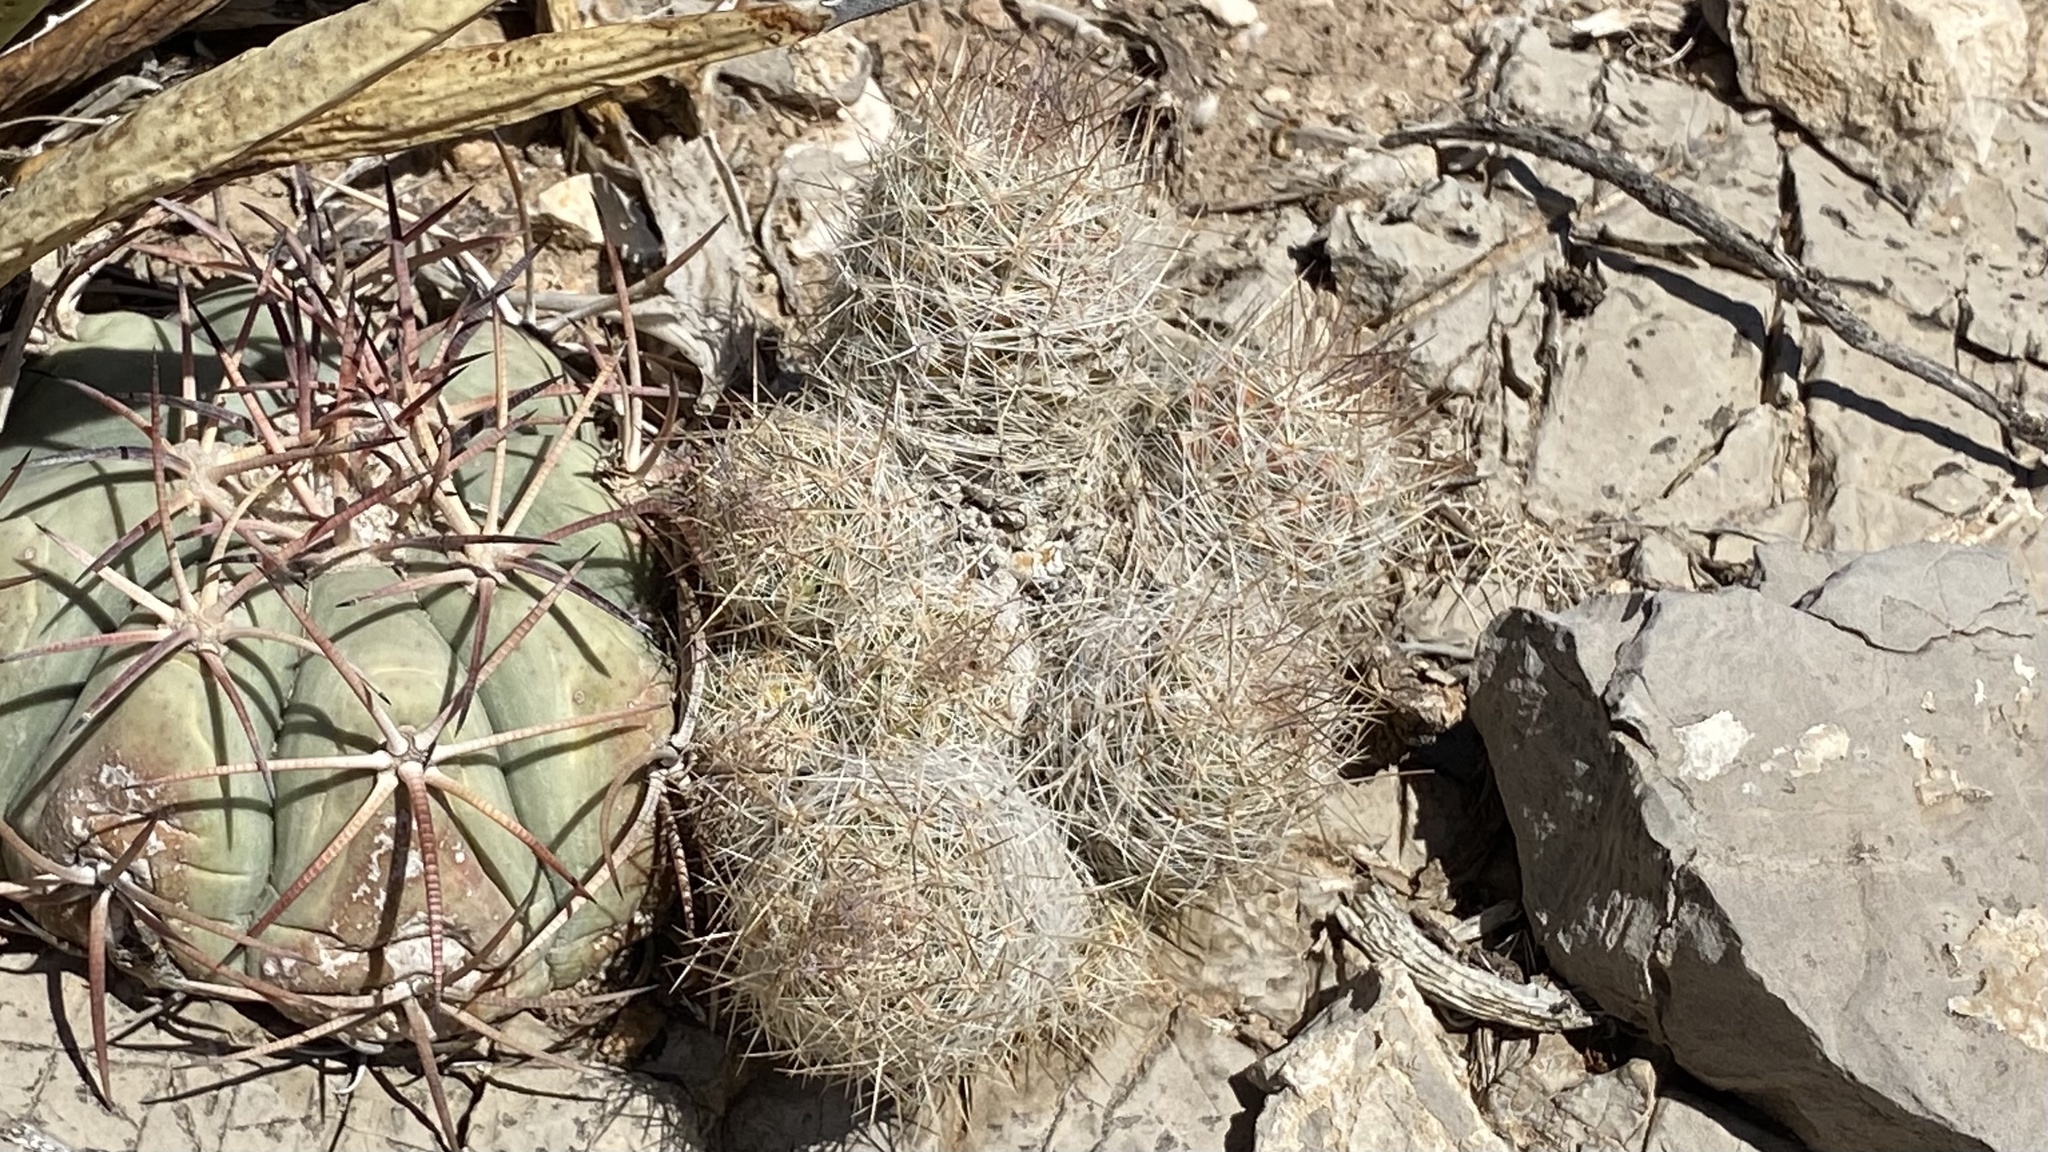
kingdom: Plantae
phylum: Tracheophyta
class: Magnoliopsida
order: Caryophyllales
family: Cactaceae
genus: Pelecyphora
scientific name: Pelecyphora tuberculosa
